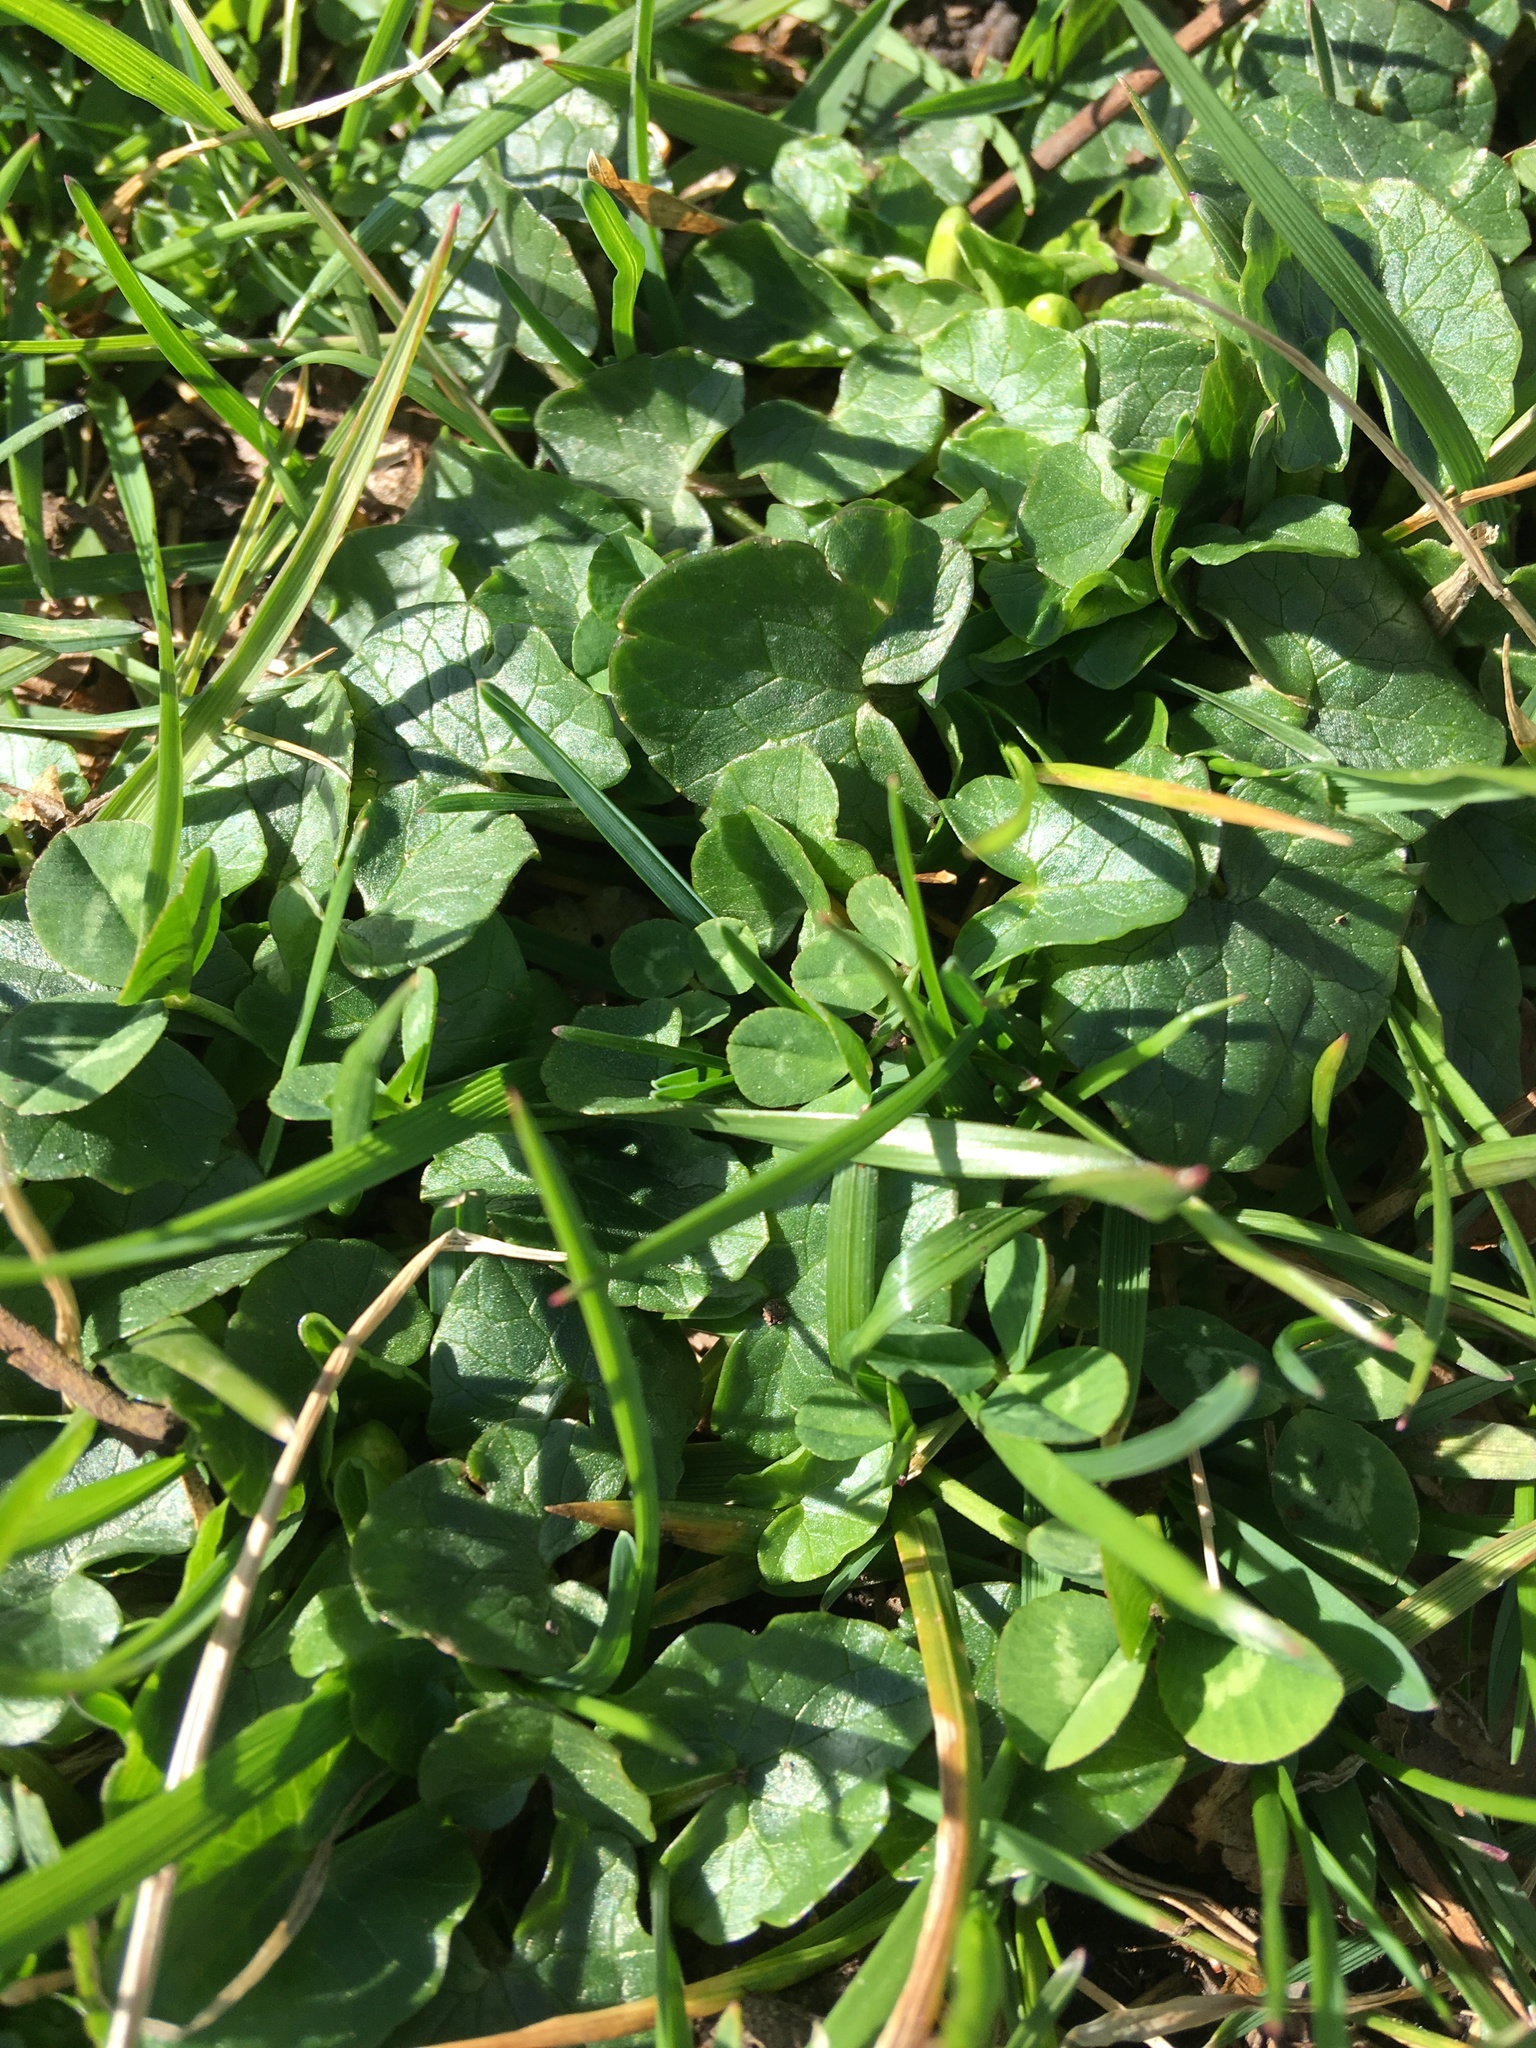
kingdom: Plantae
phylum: Tracheophyta
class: Magnoliopsida
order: Ranunculales
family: Ranunculaceae
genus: Ficaria
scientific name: Ficaria verna
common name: Lesser celandine
